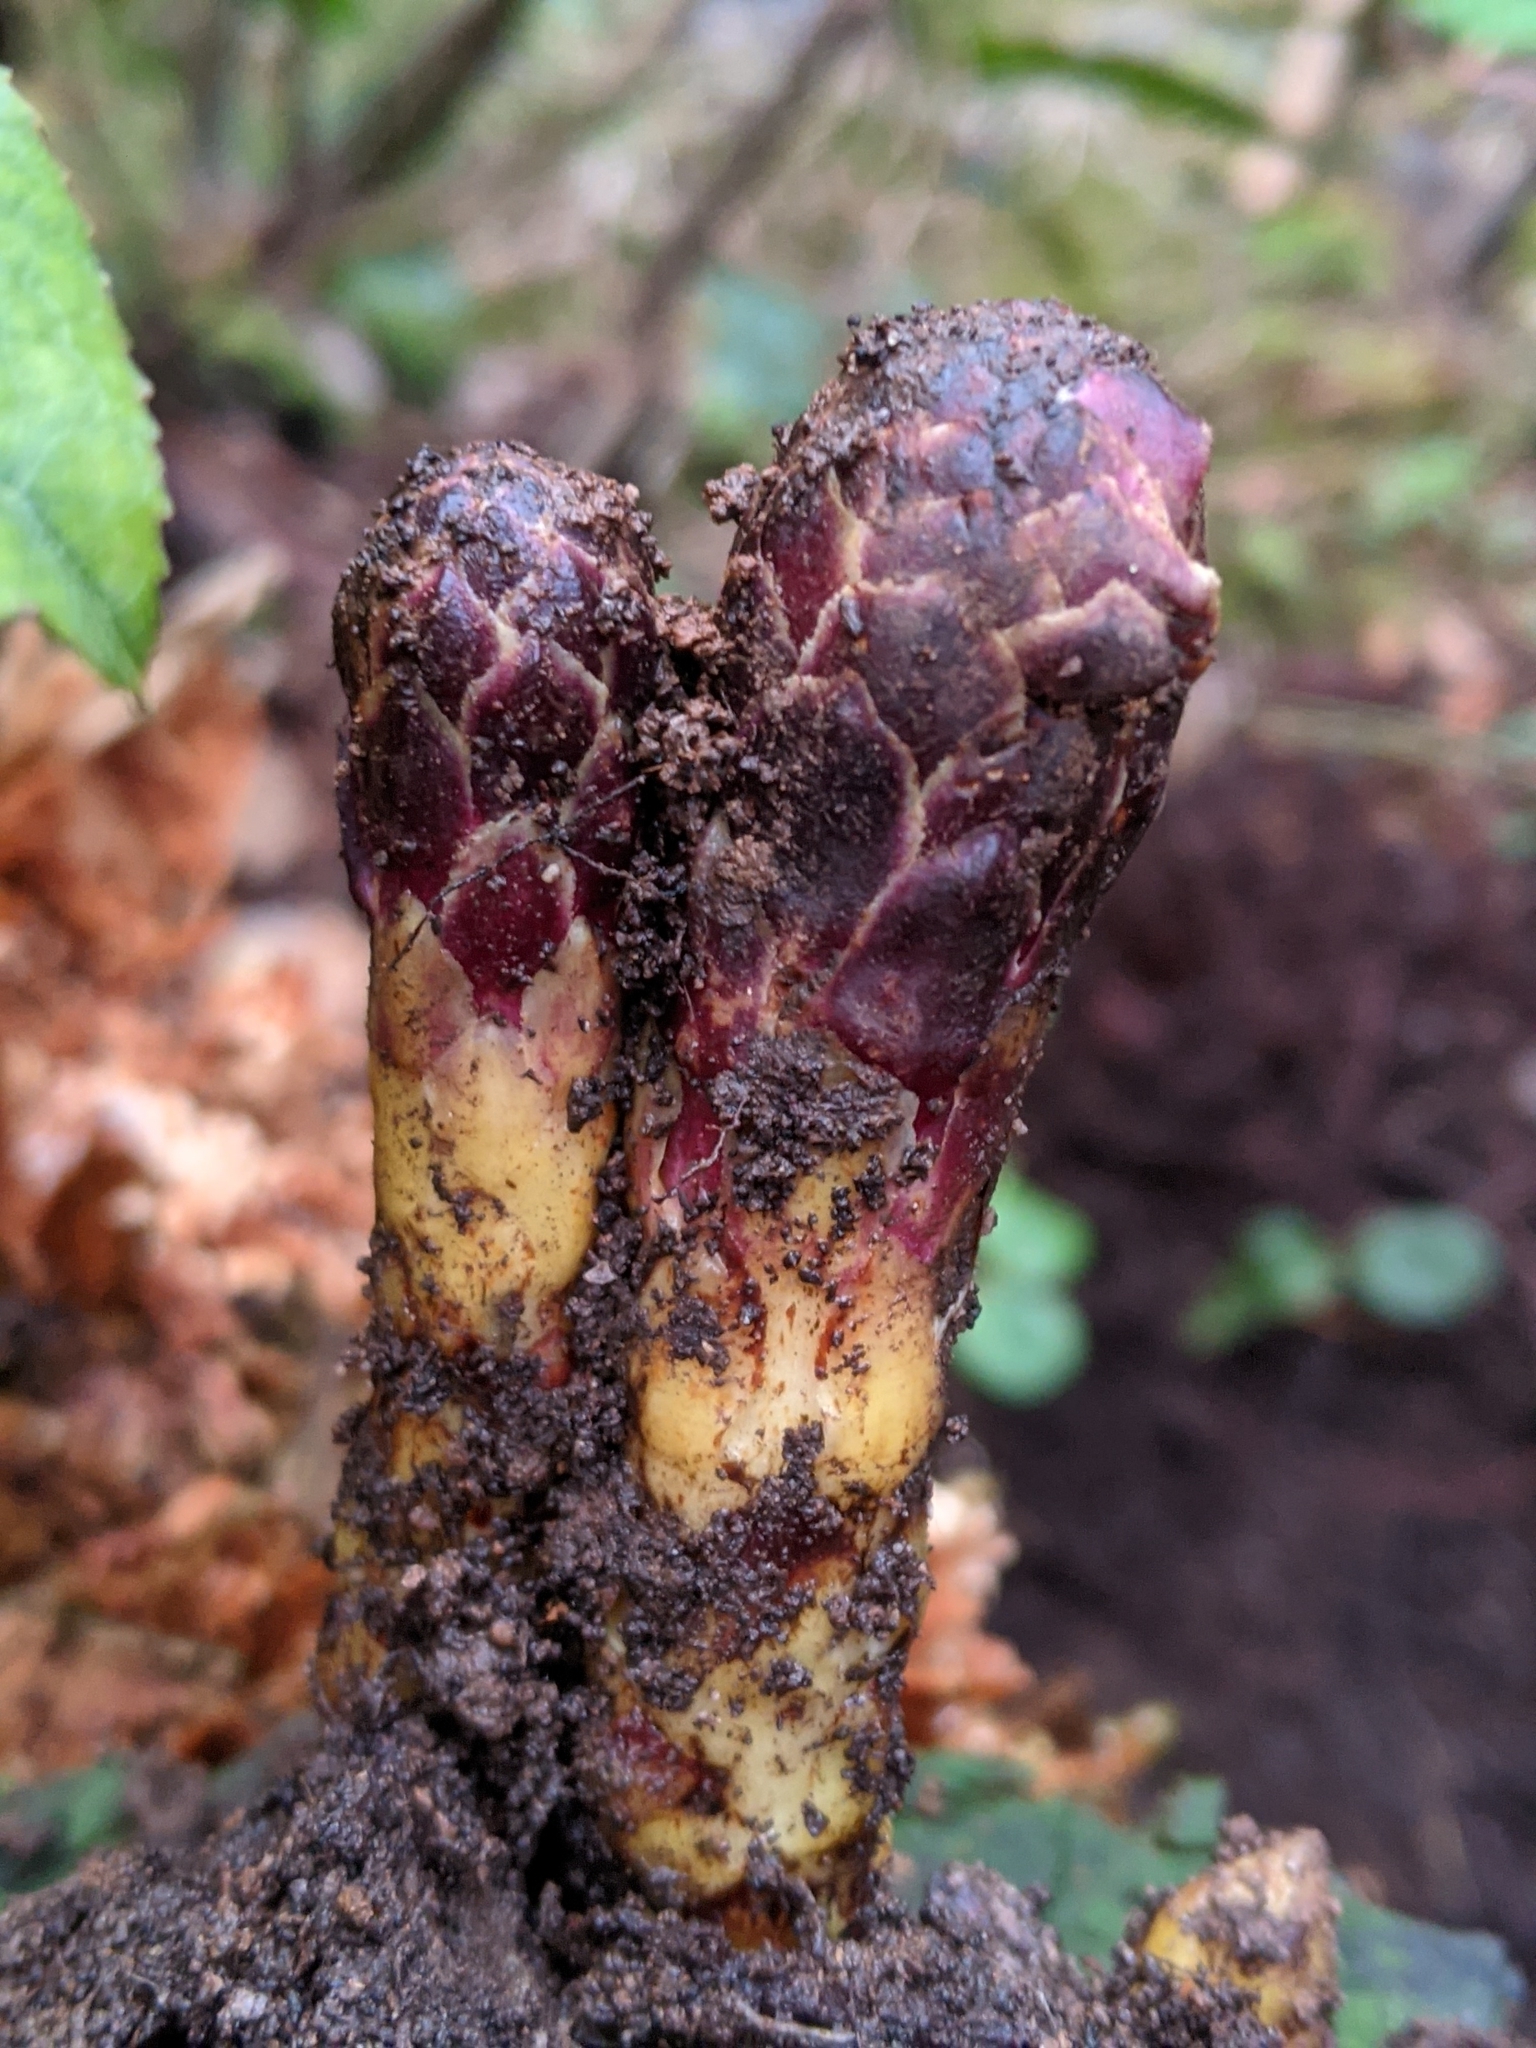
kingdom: Plantae
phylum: Tracheophyta
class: Magnoliopsida
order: Lamiales
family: Orobanchaceae
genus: Kopsiopsis
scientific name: Kopsiopsis hookeri
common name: Hooker's groundcone
